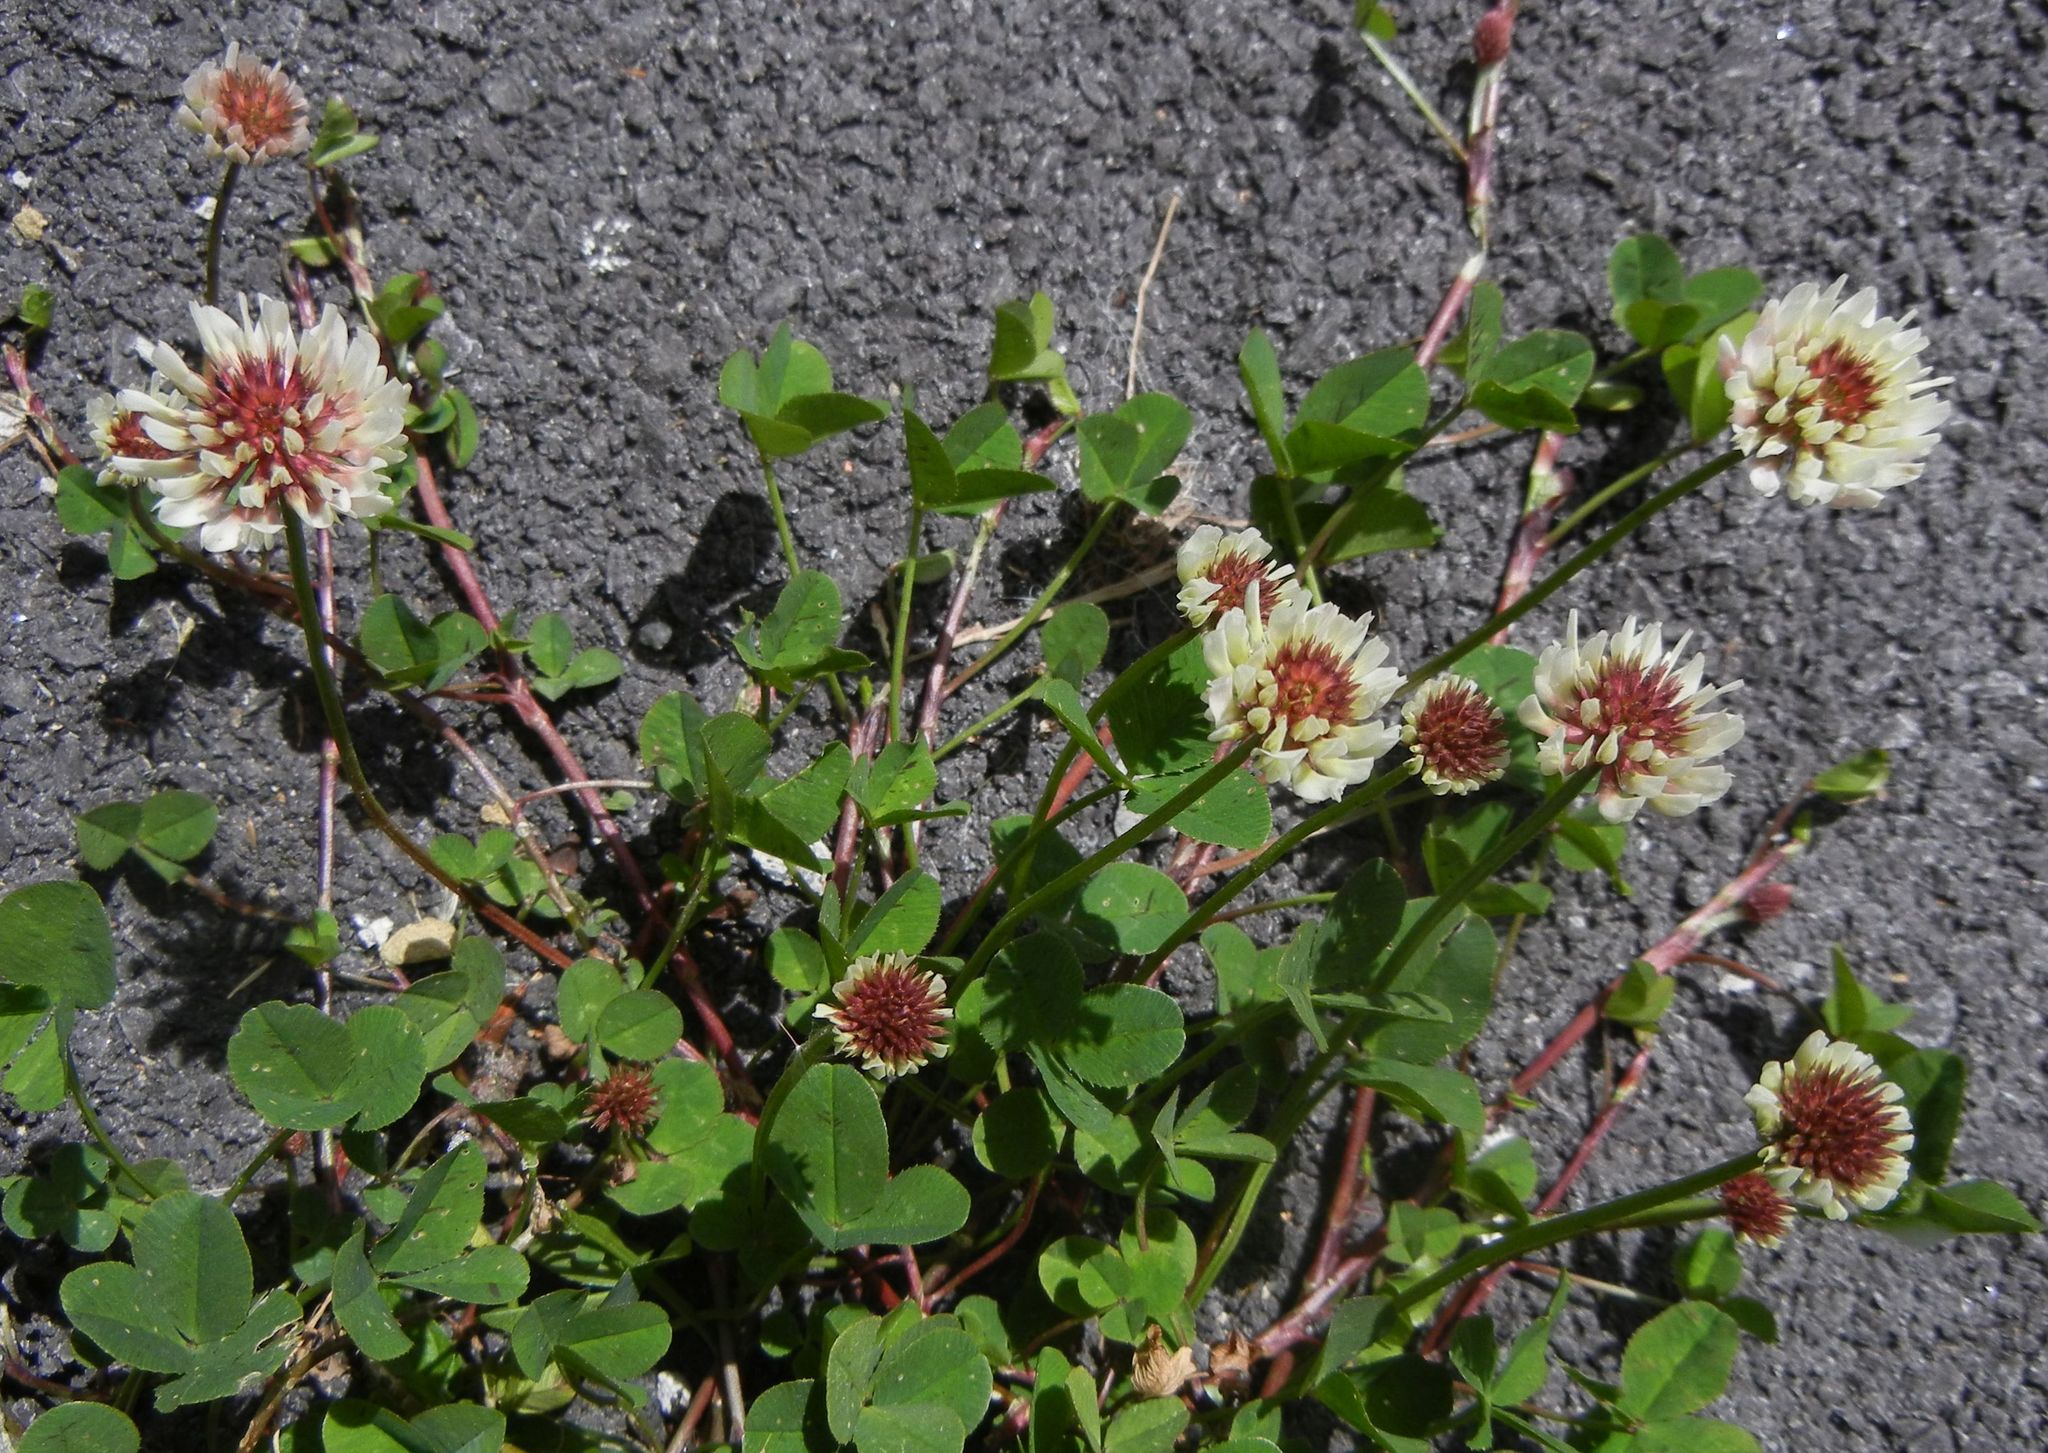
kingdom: Plantae
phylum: Tracheophyta
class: Magnoliopsida
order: Fabales
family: Fabaceae
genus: Trifolium
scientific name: Trifolium repens
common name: White clover
